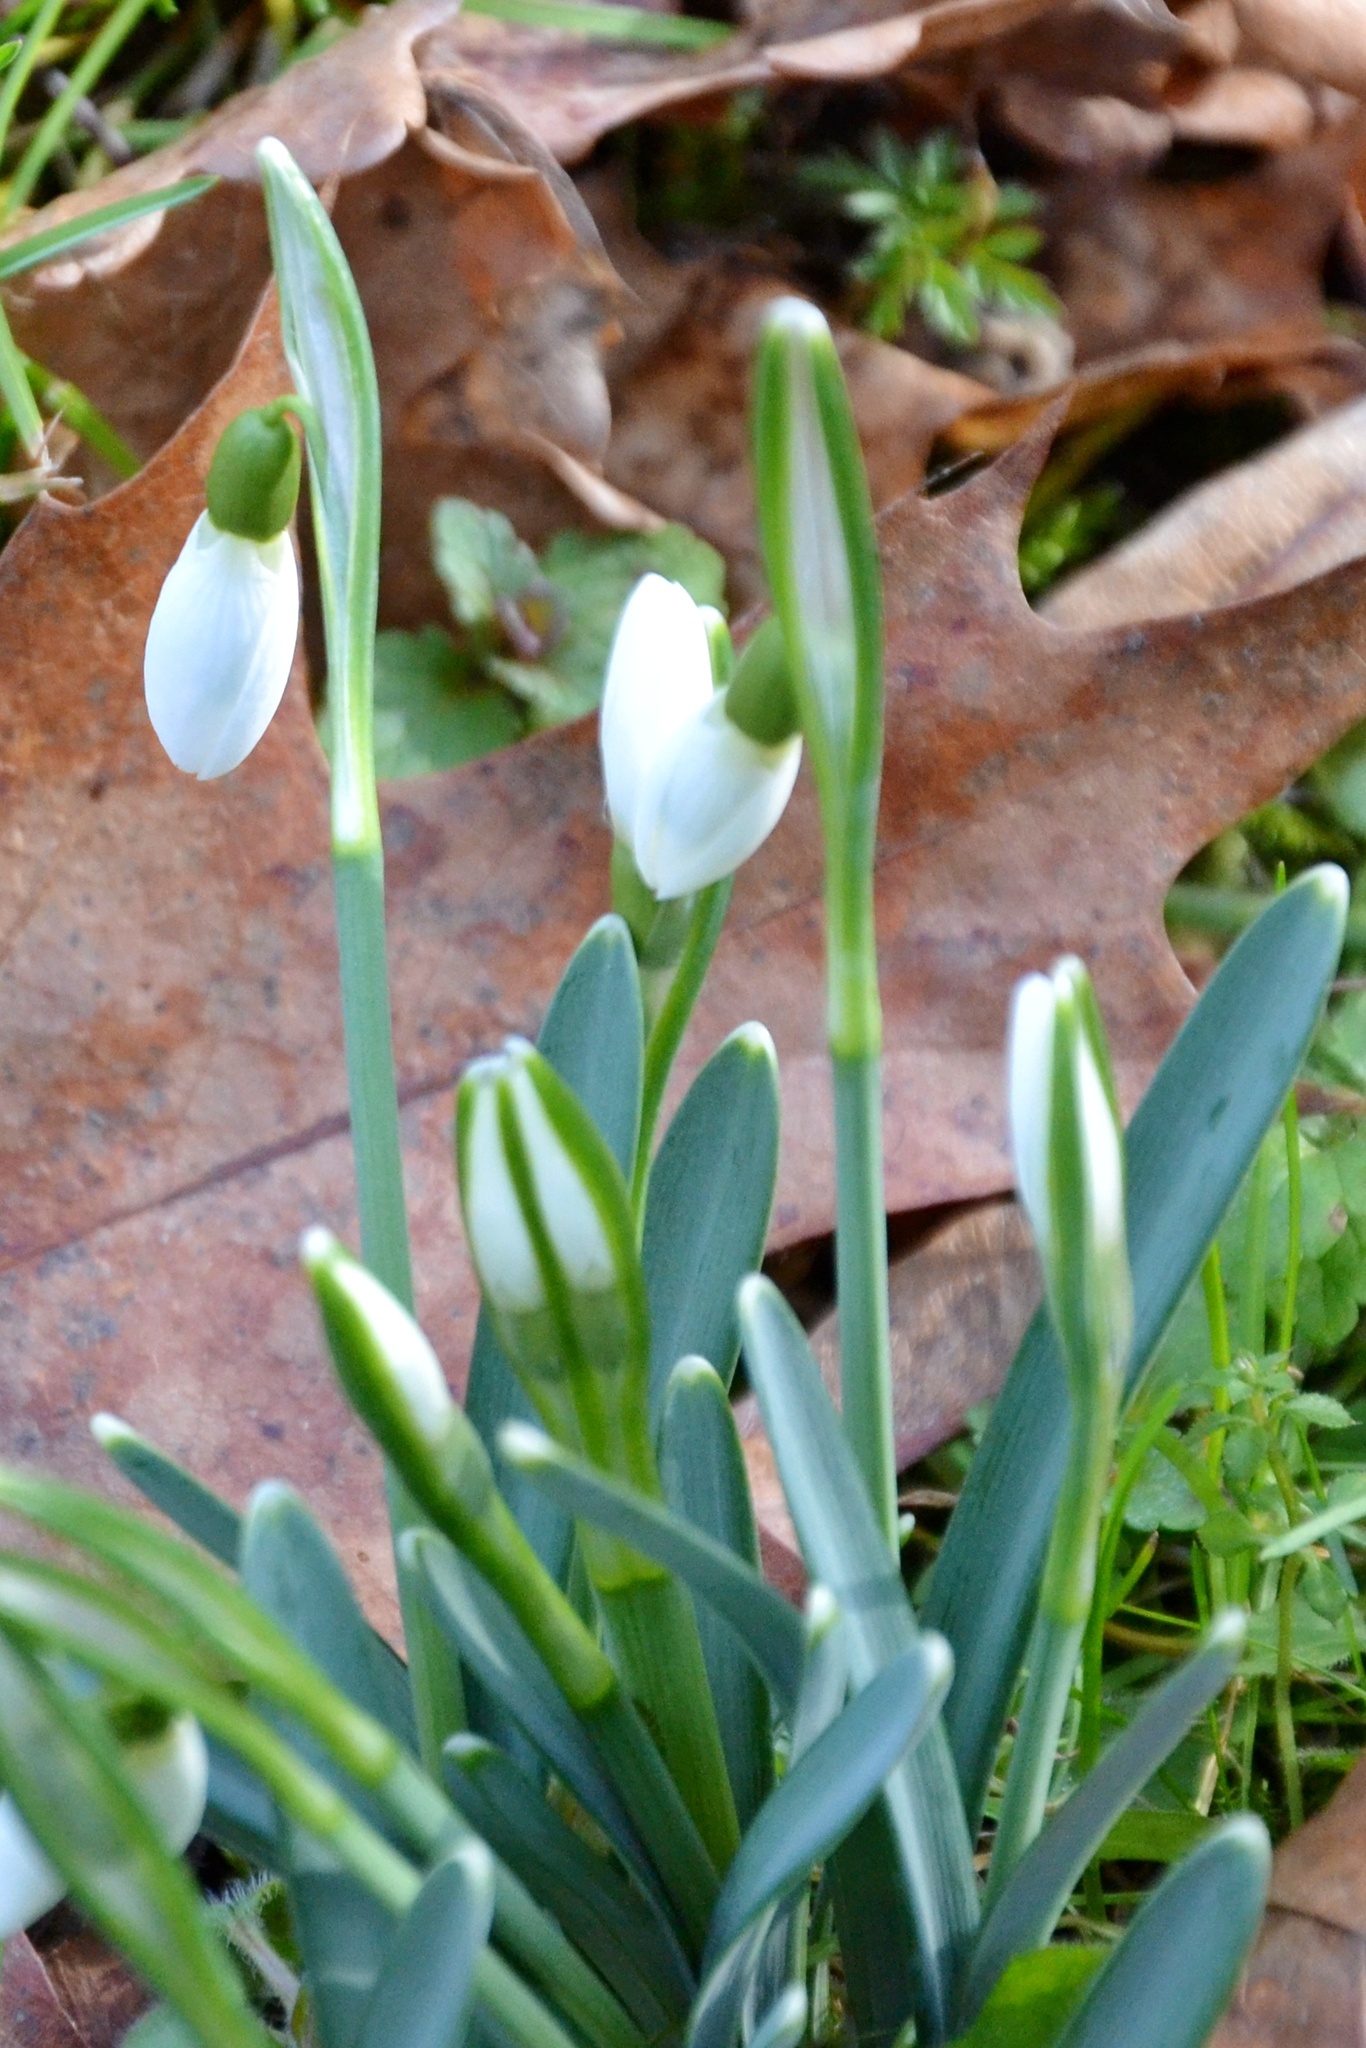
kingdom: Plantae
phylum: Tracheophyta
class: Liliopsida
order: Asparagales
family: Amaryllidaceae
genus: Galanthus
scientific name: Galanthus nivalis
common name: Snowdrop
